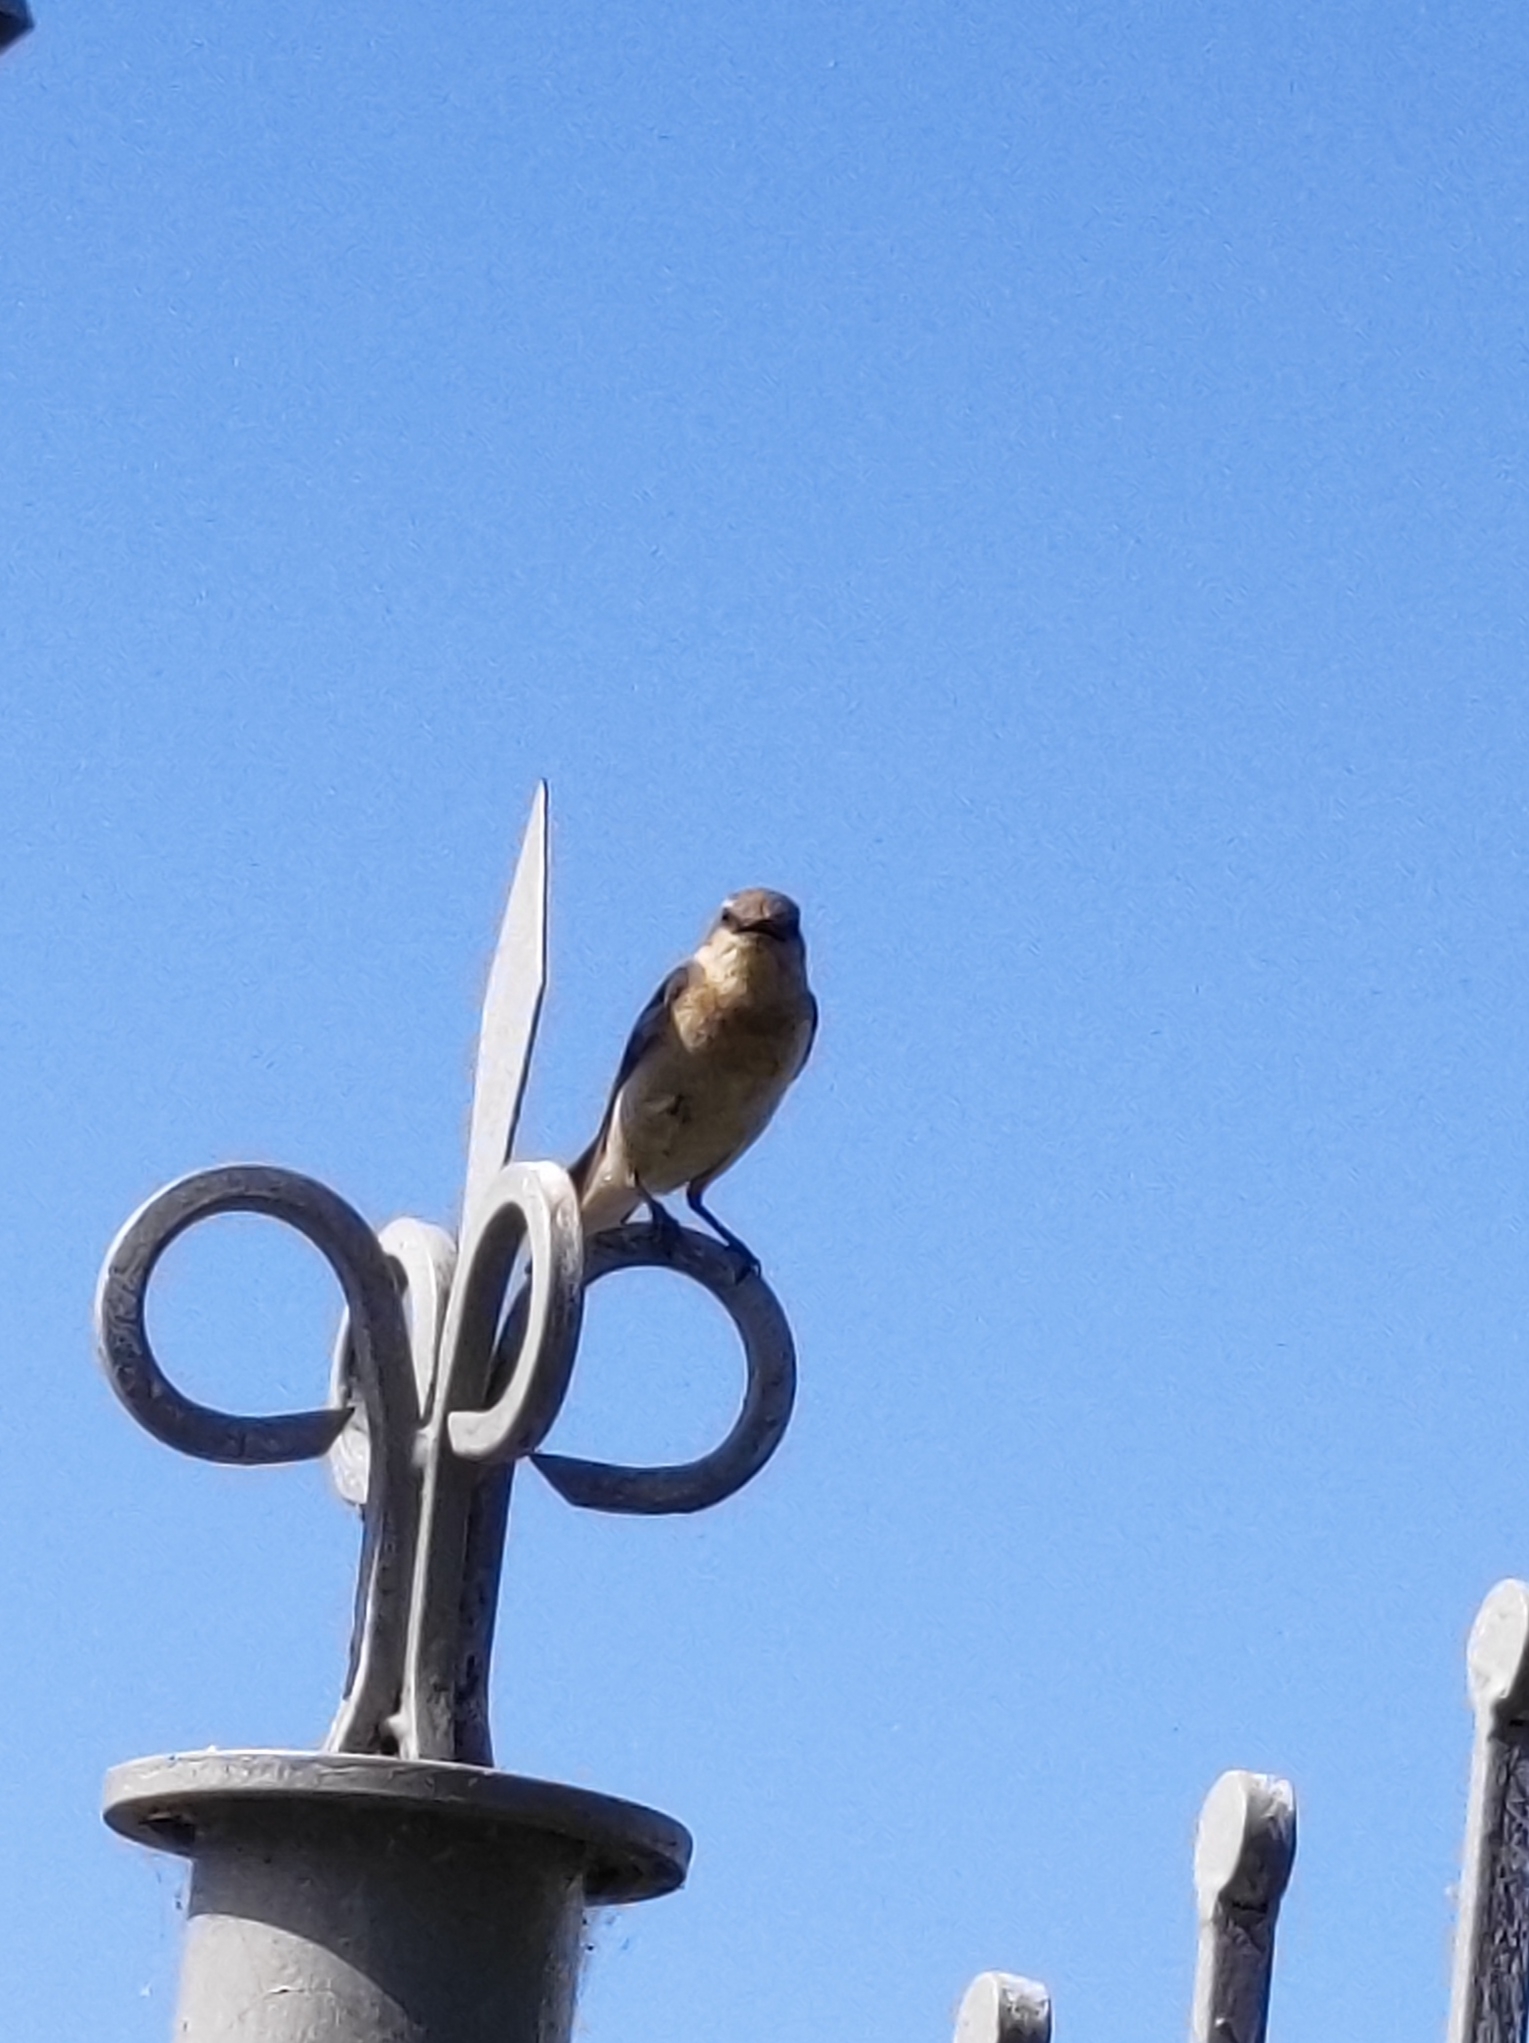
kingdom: Animalia
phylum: Chordata
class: Aves
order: Passeriformes
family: Muscicapidae
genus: Oenanthe
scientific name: Oenanthe oenanthe
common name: Northern wheatear
